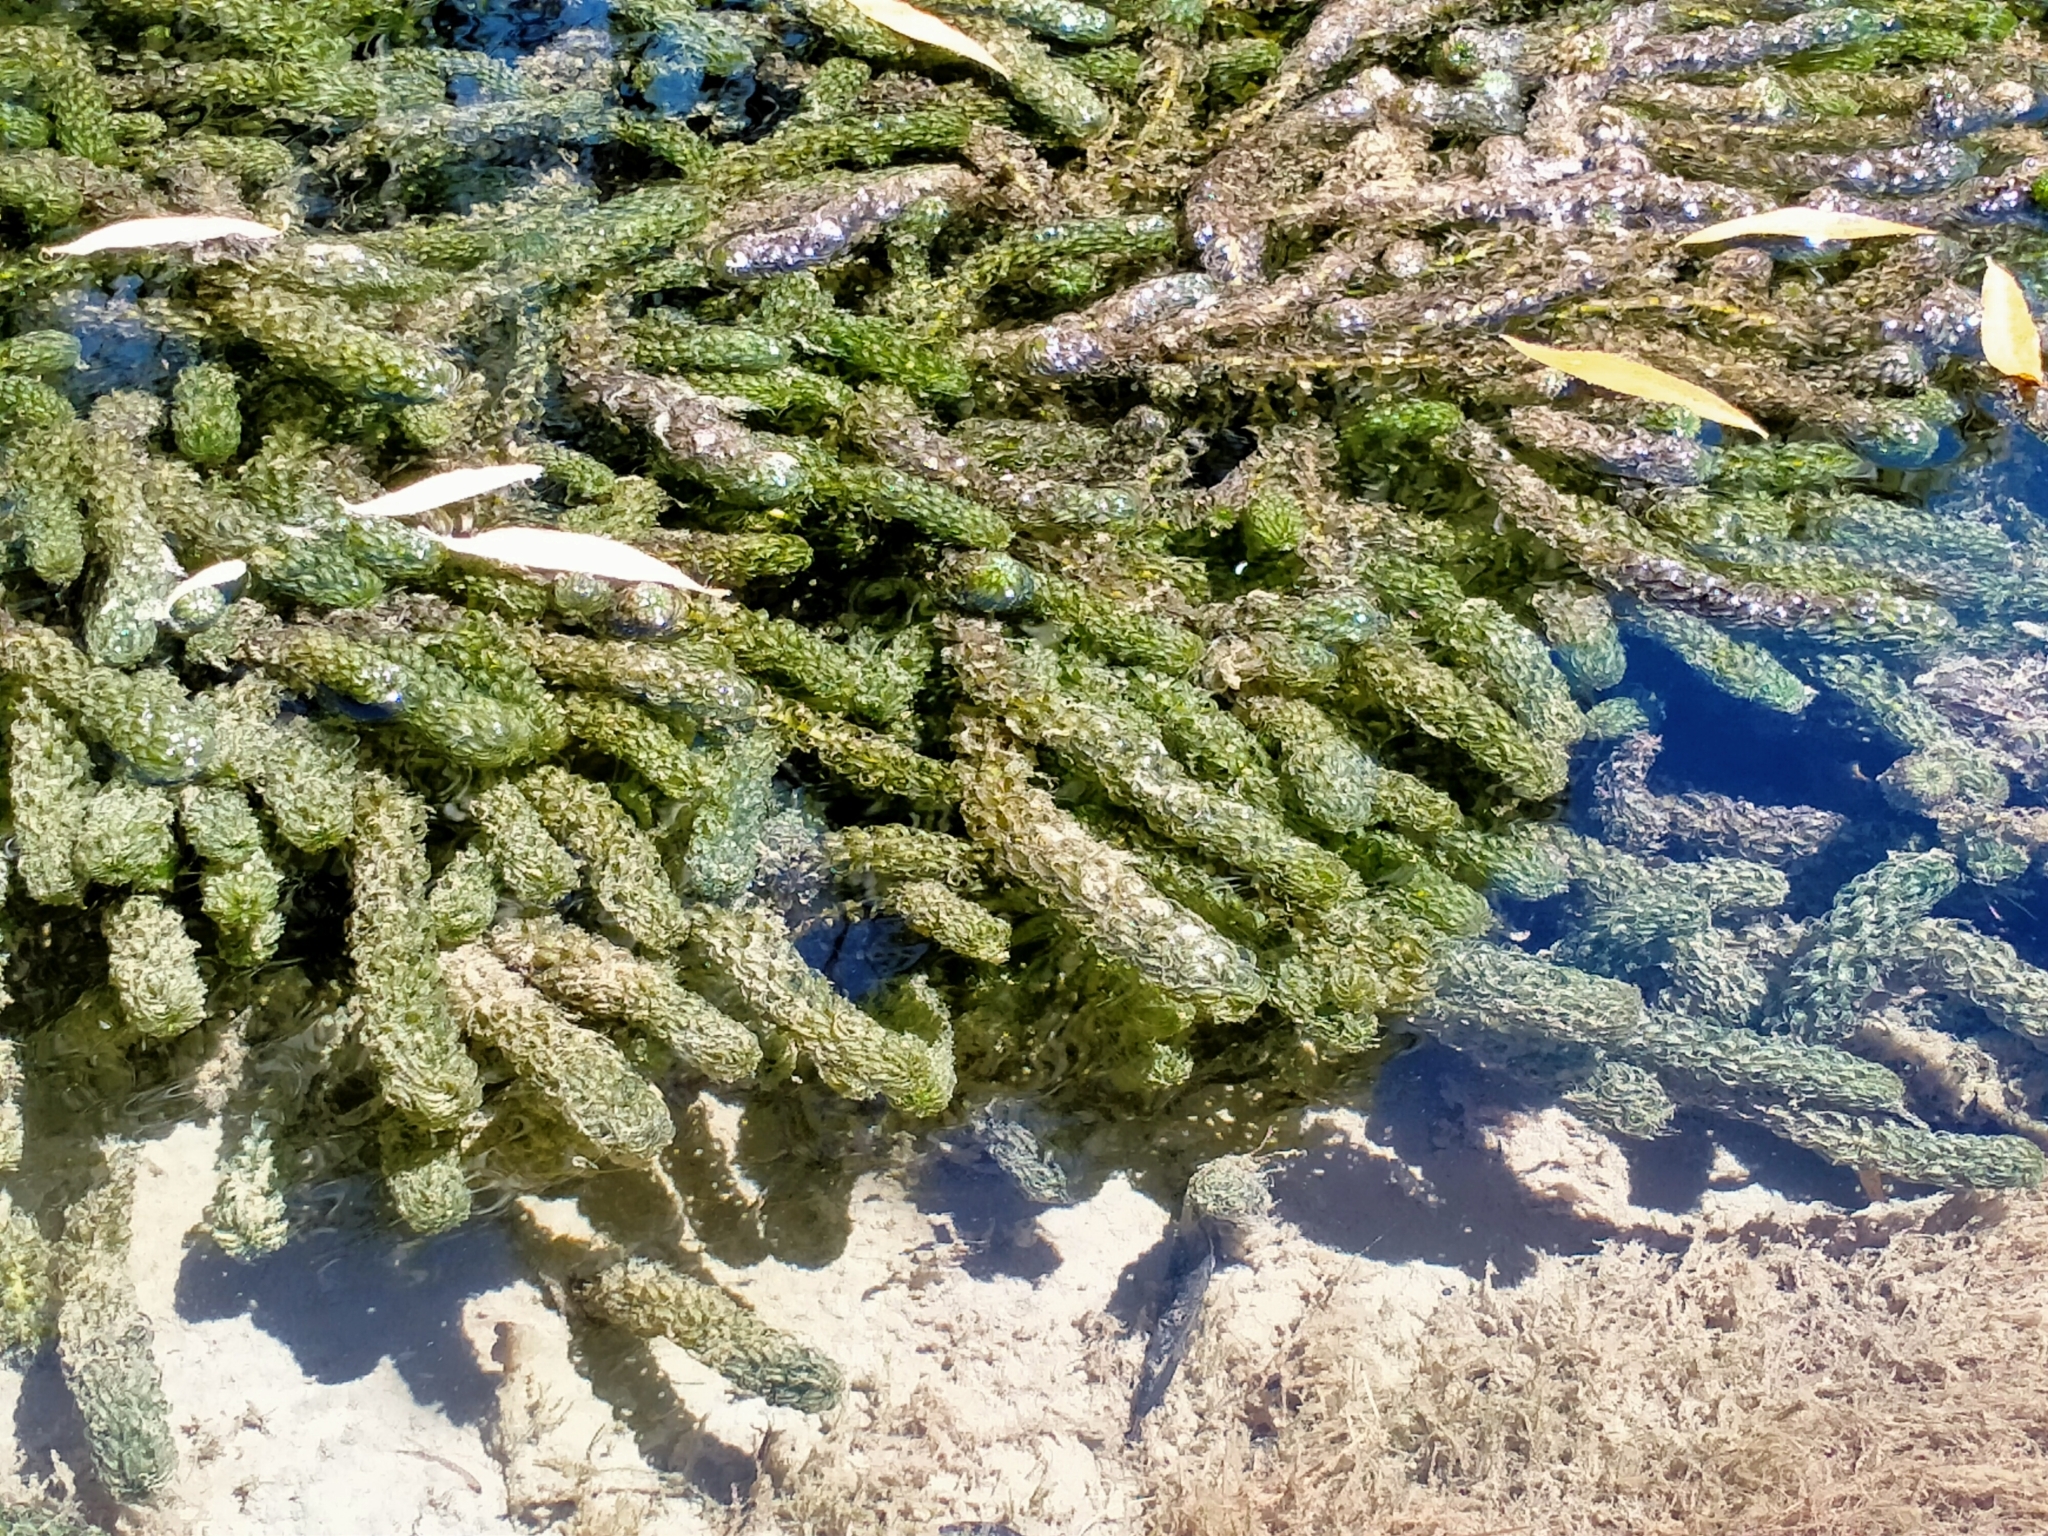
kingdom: Plantae
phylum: Tracheophyta
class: Liliopsida
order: Alismatales
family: Hydrocharitaceae
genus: Lagarosiphon
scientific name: Lagarosiphon major
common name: Curly waterweed
